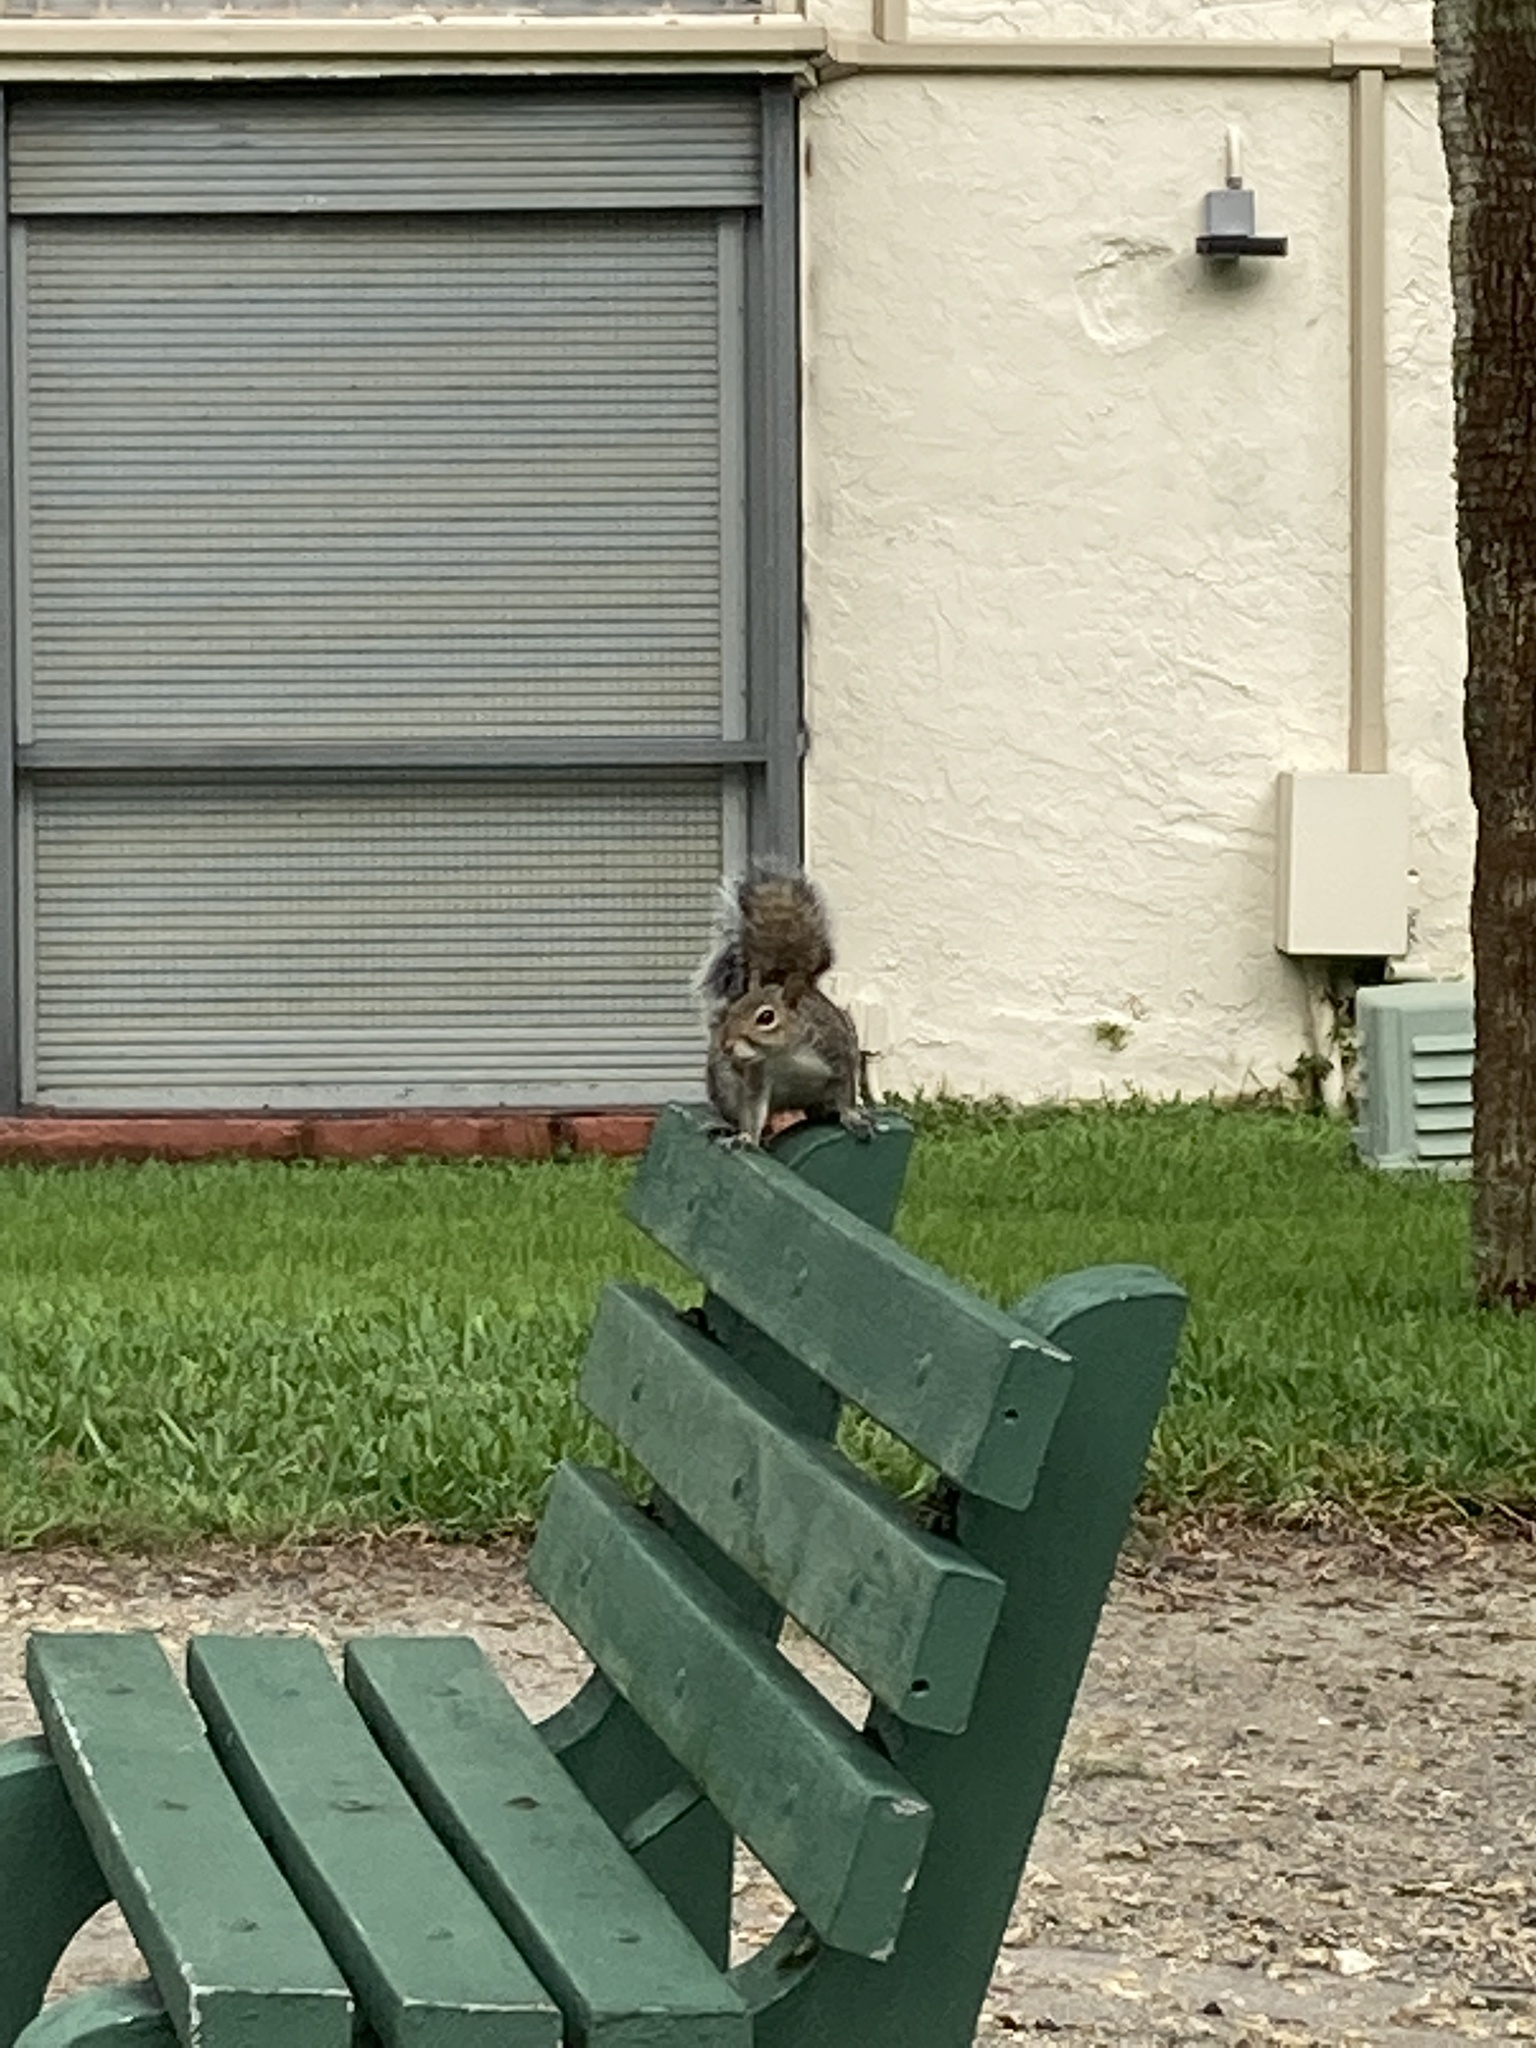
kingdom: Animalia
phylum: Chordata
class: Mammalia
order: Rodentia
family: Sciuridae
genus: Sciurus
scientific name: Sciurus carolinensis
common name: Eastern gray squirrel
